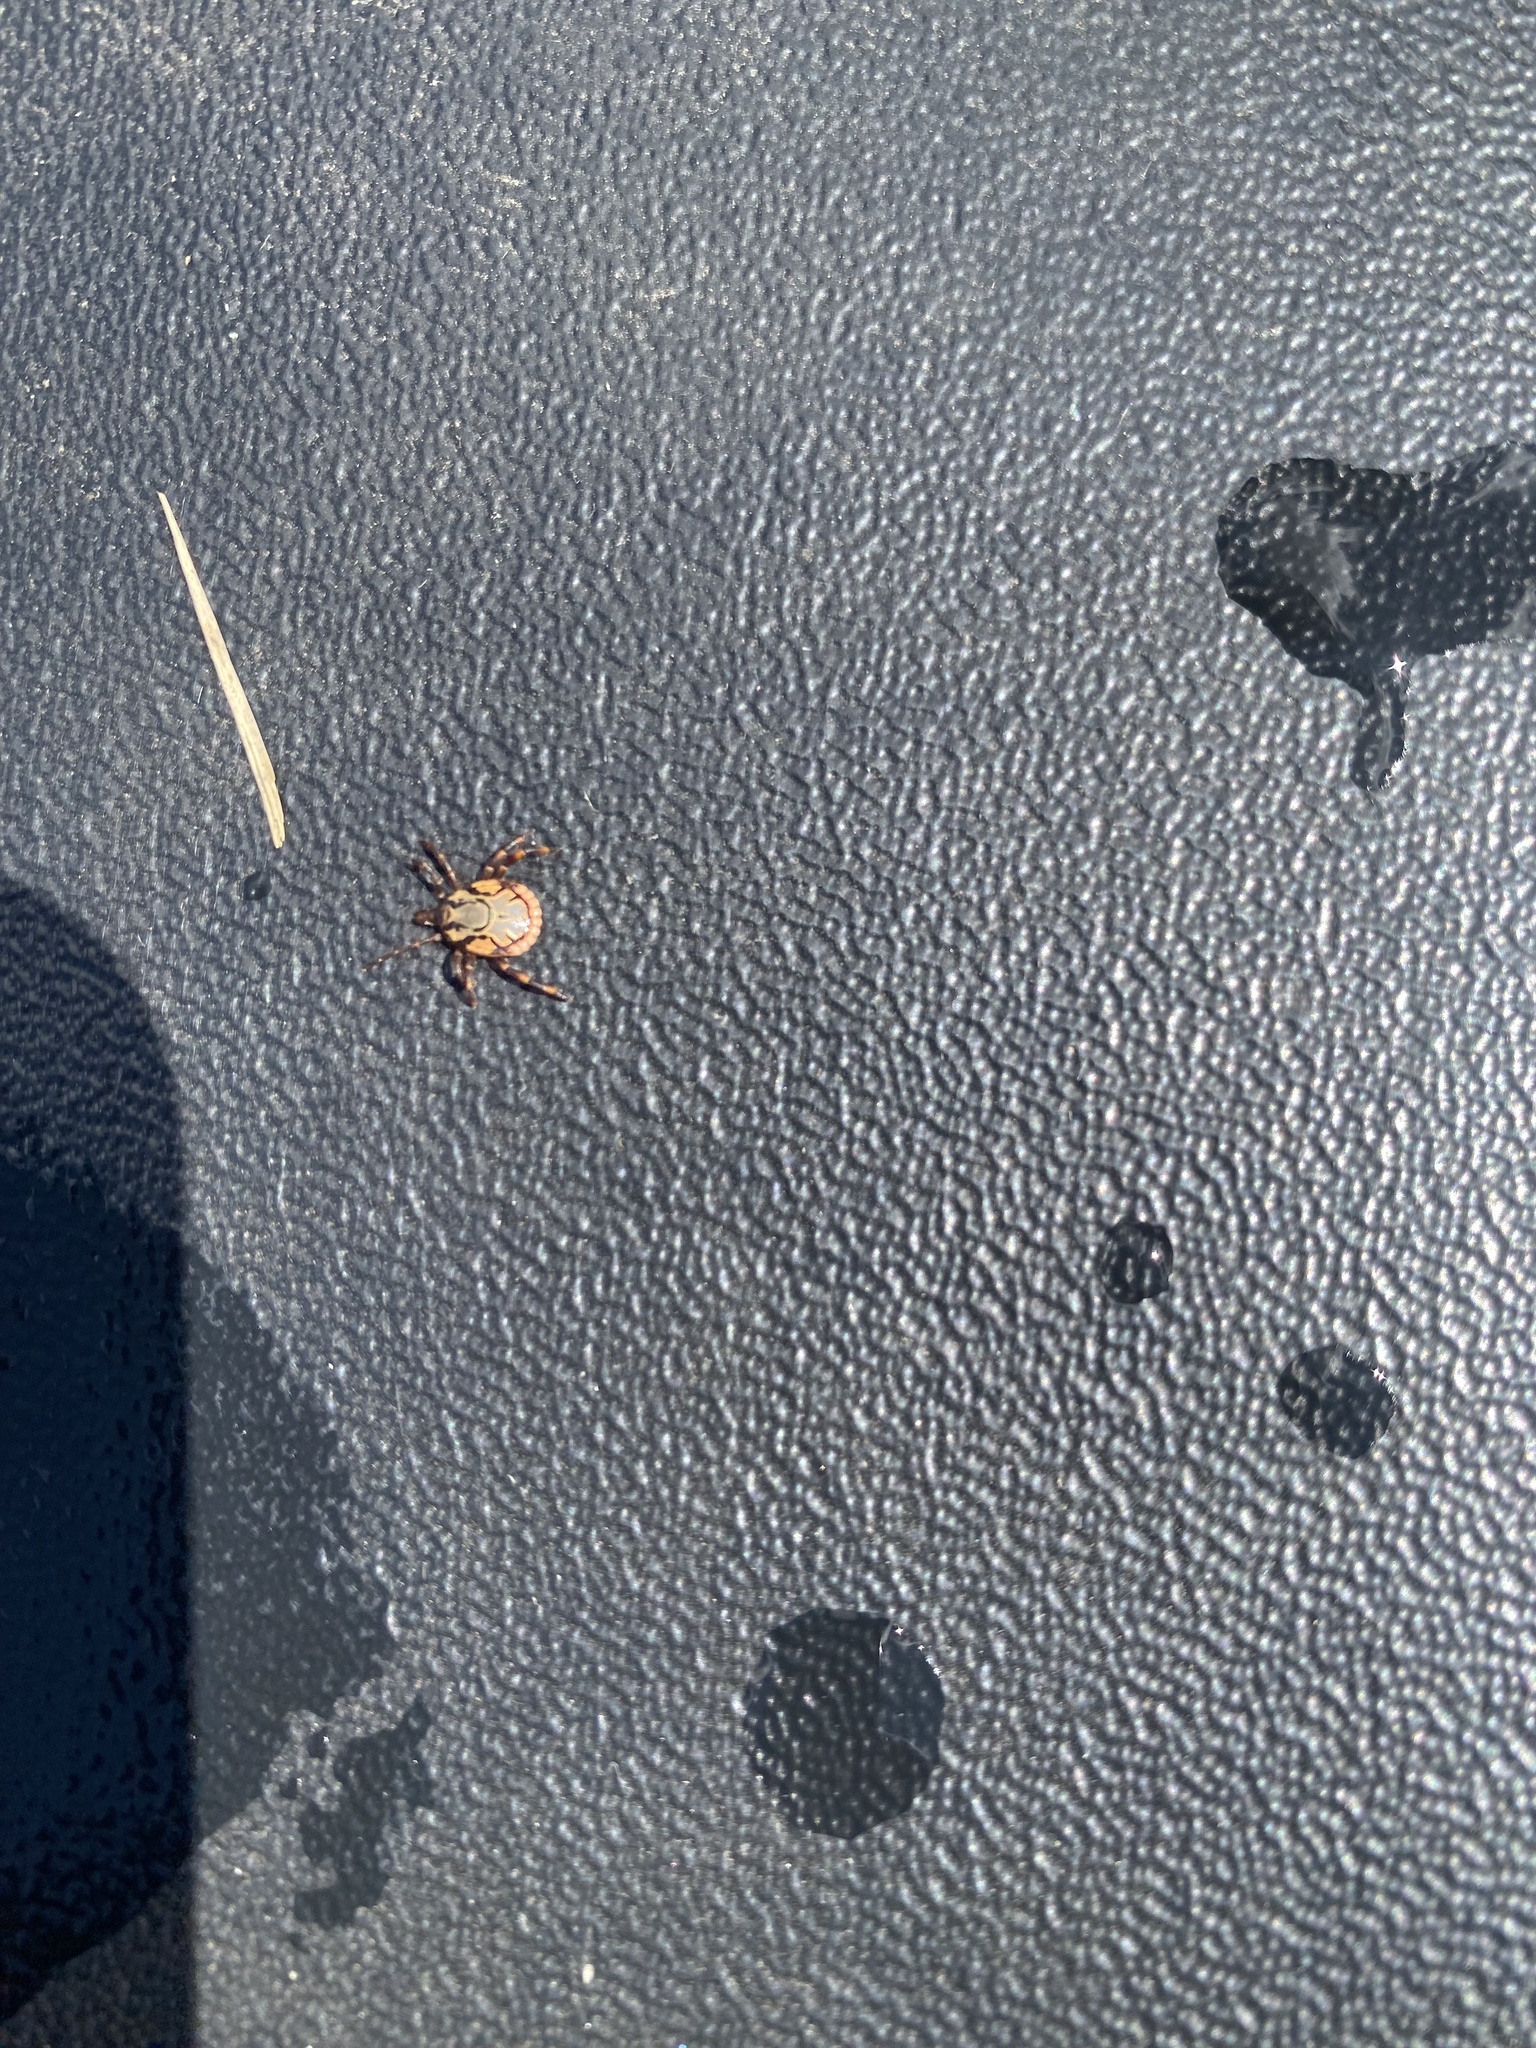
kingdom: Animalia
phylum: Arthropoda
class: Arachnida
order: Ixodida
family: Ixodidae
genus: Amblyomma
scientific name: Amblyomma hebraeum
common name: Bont tick
